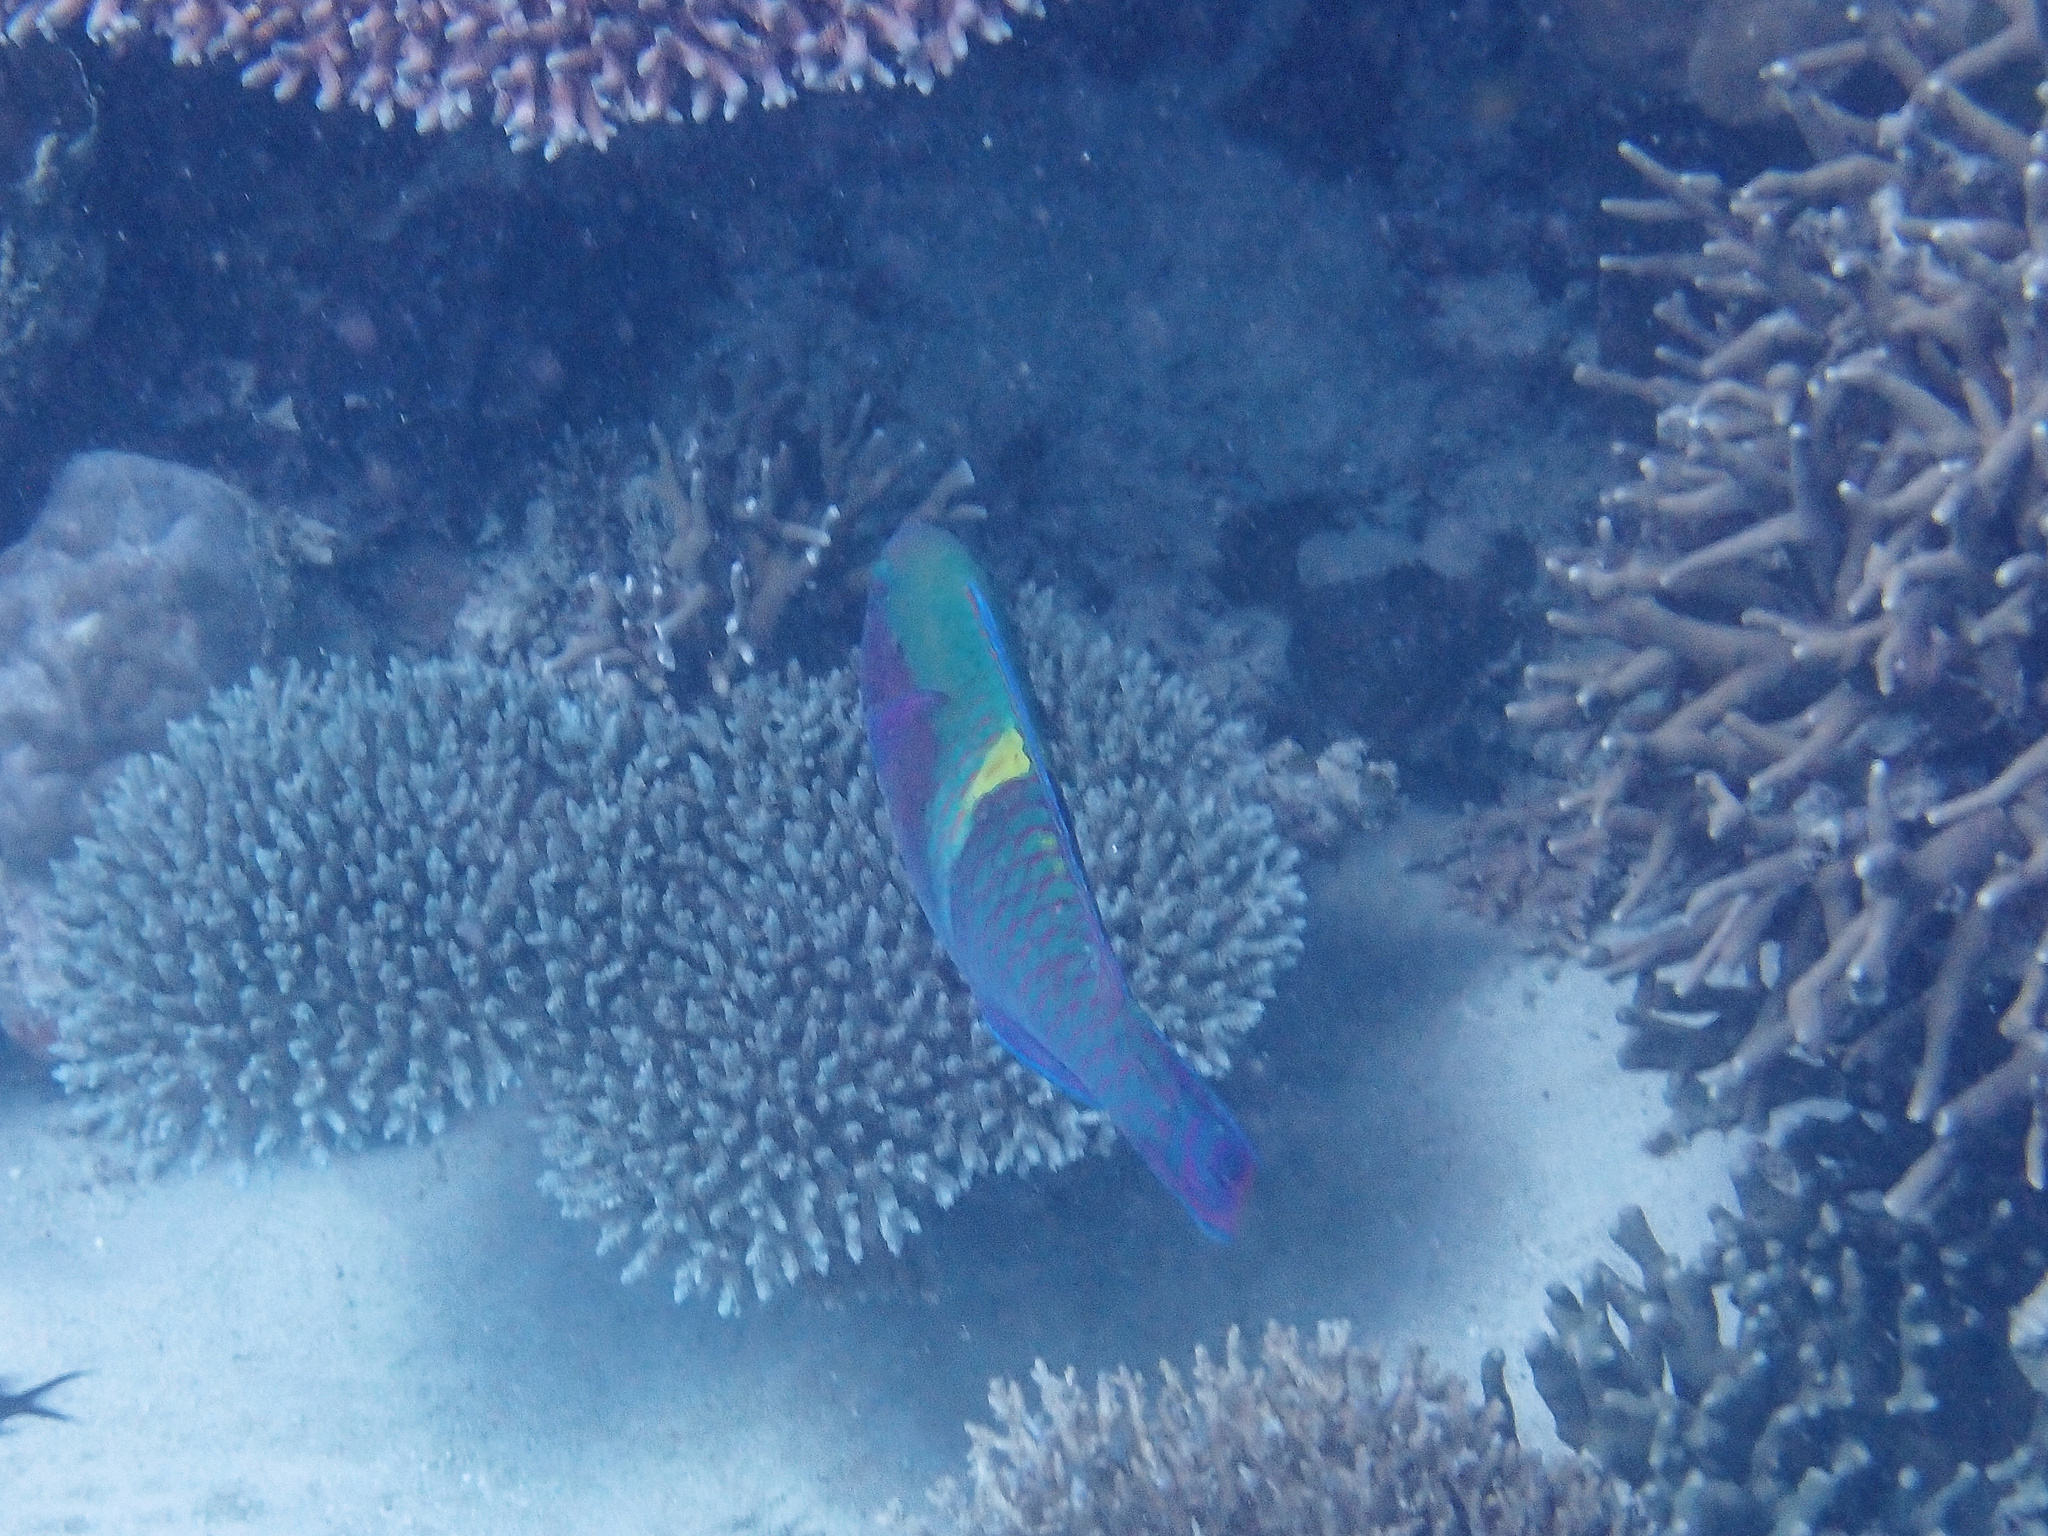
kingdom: Animalia
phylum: Chordata
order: Perciformes
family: Scaridae
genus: Scarus
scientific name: Scarus schlegeli
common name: Schlegel's parrotfish
